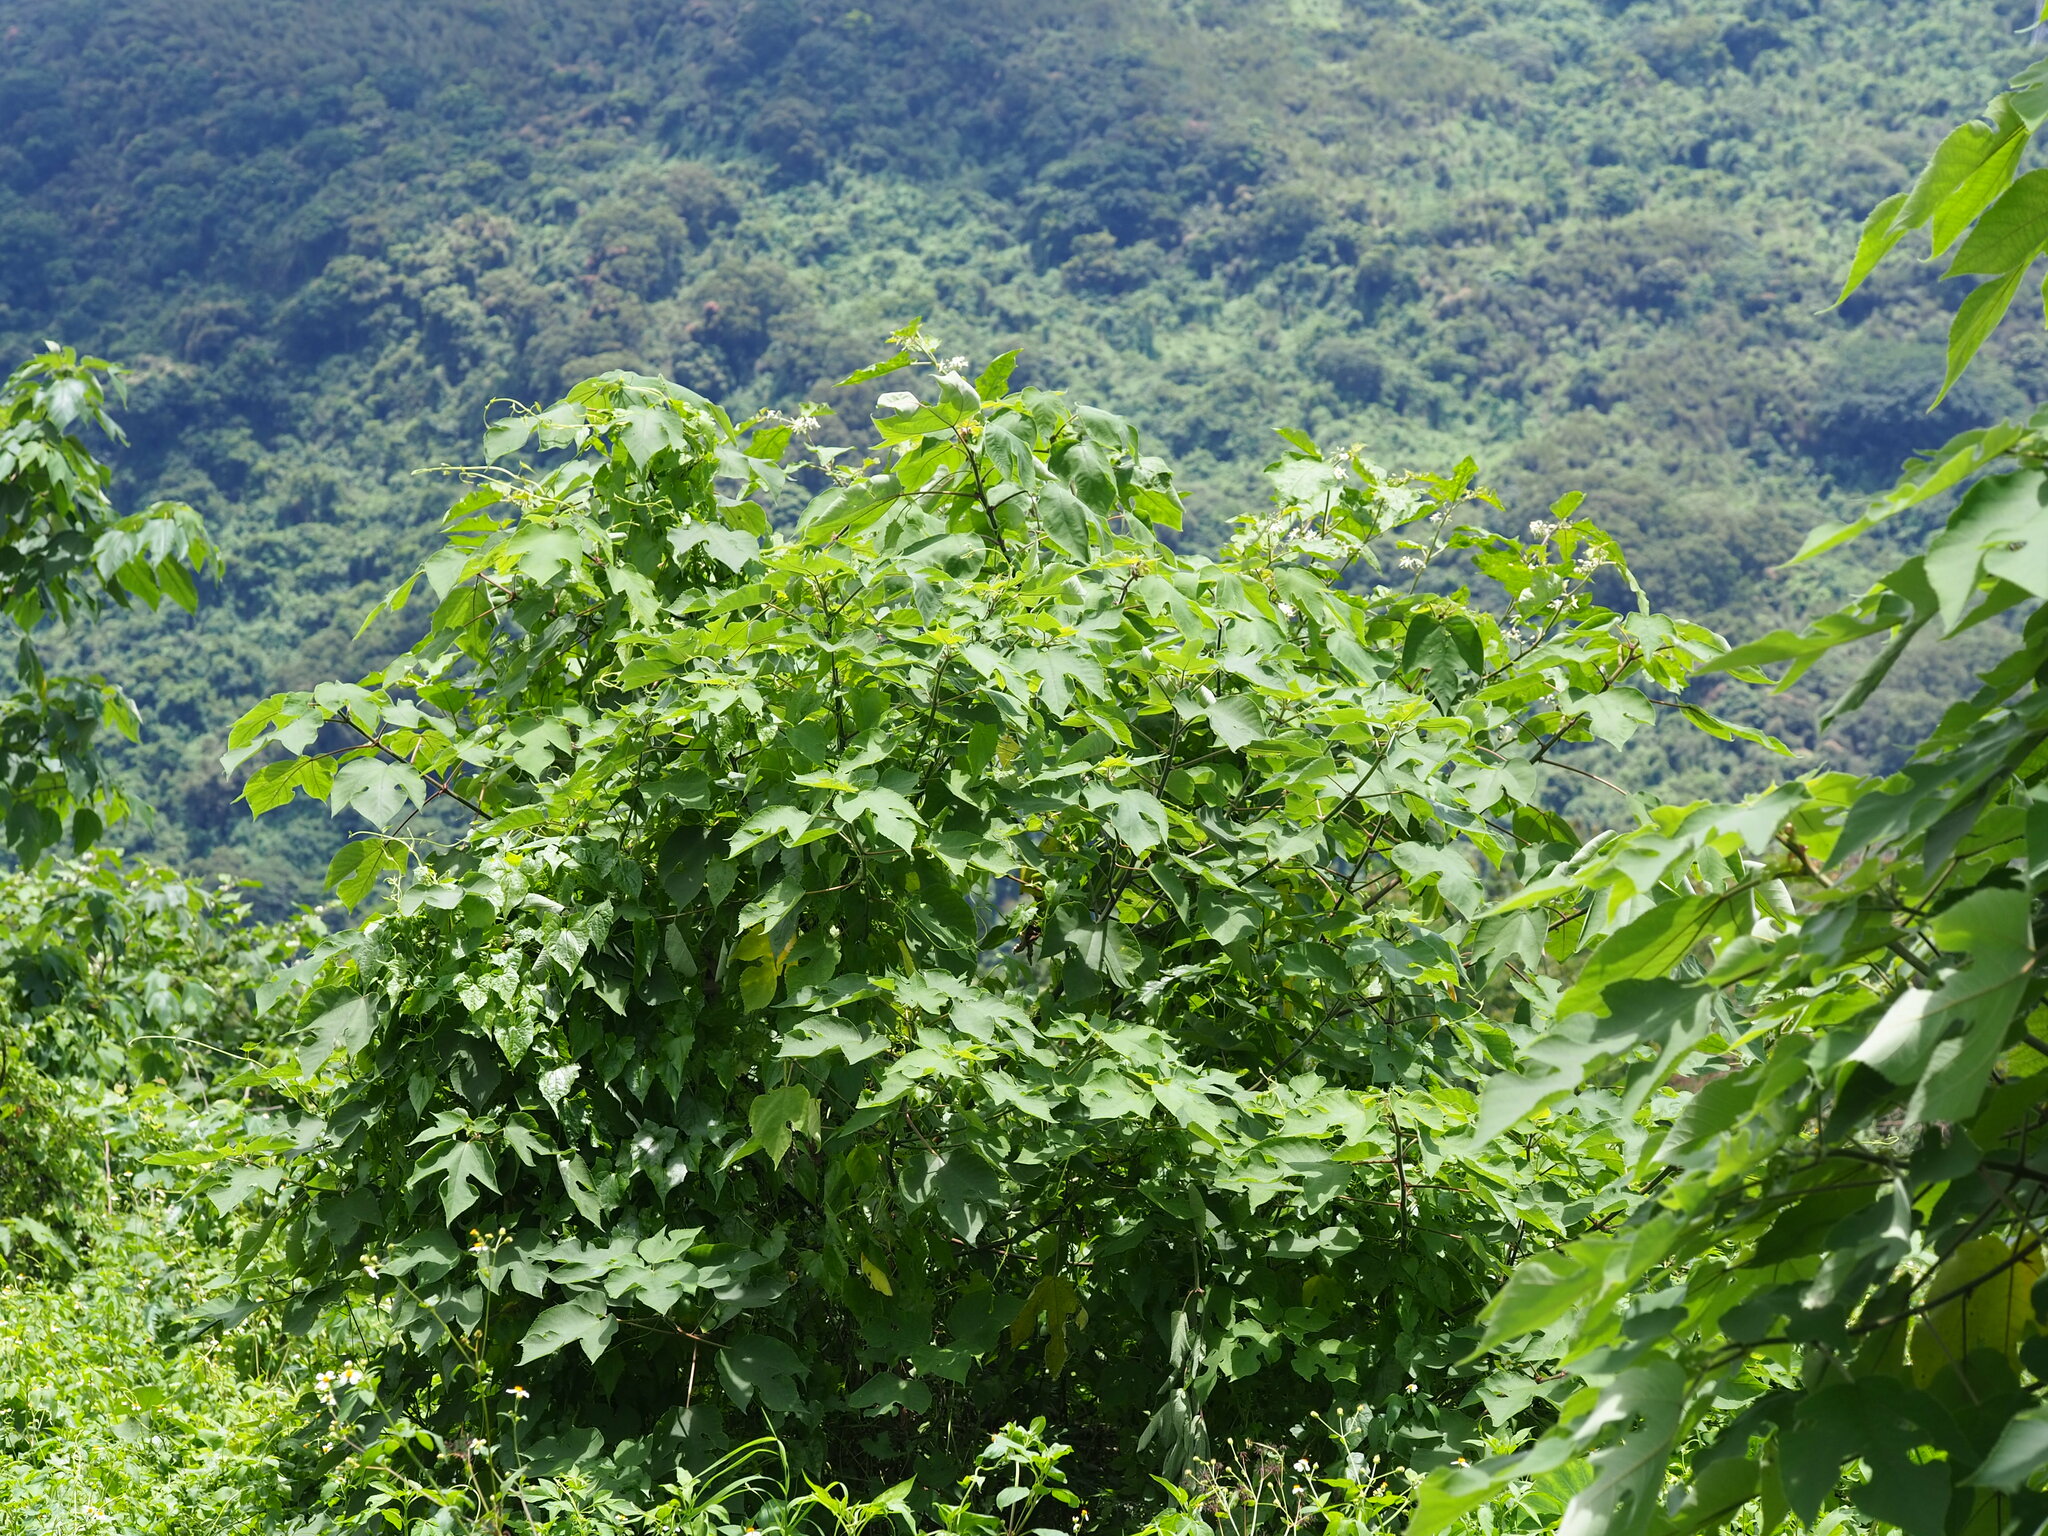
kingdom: Plantae
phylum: Tracheophyta
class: Magnoliopsida
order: Rosales
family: Moraceae
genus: Broussonetia
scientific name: Broussonetia papyrifera
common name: Paper mulberry
